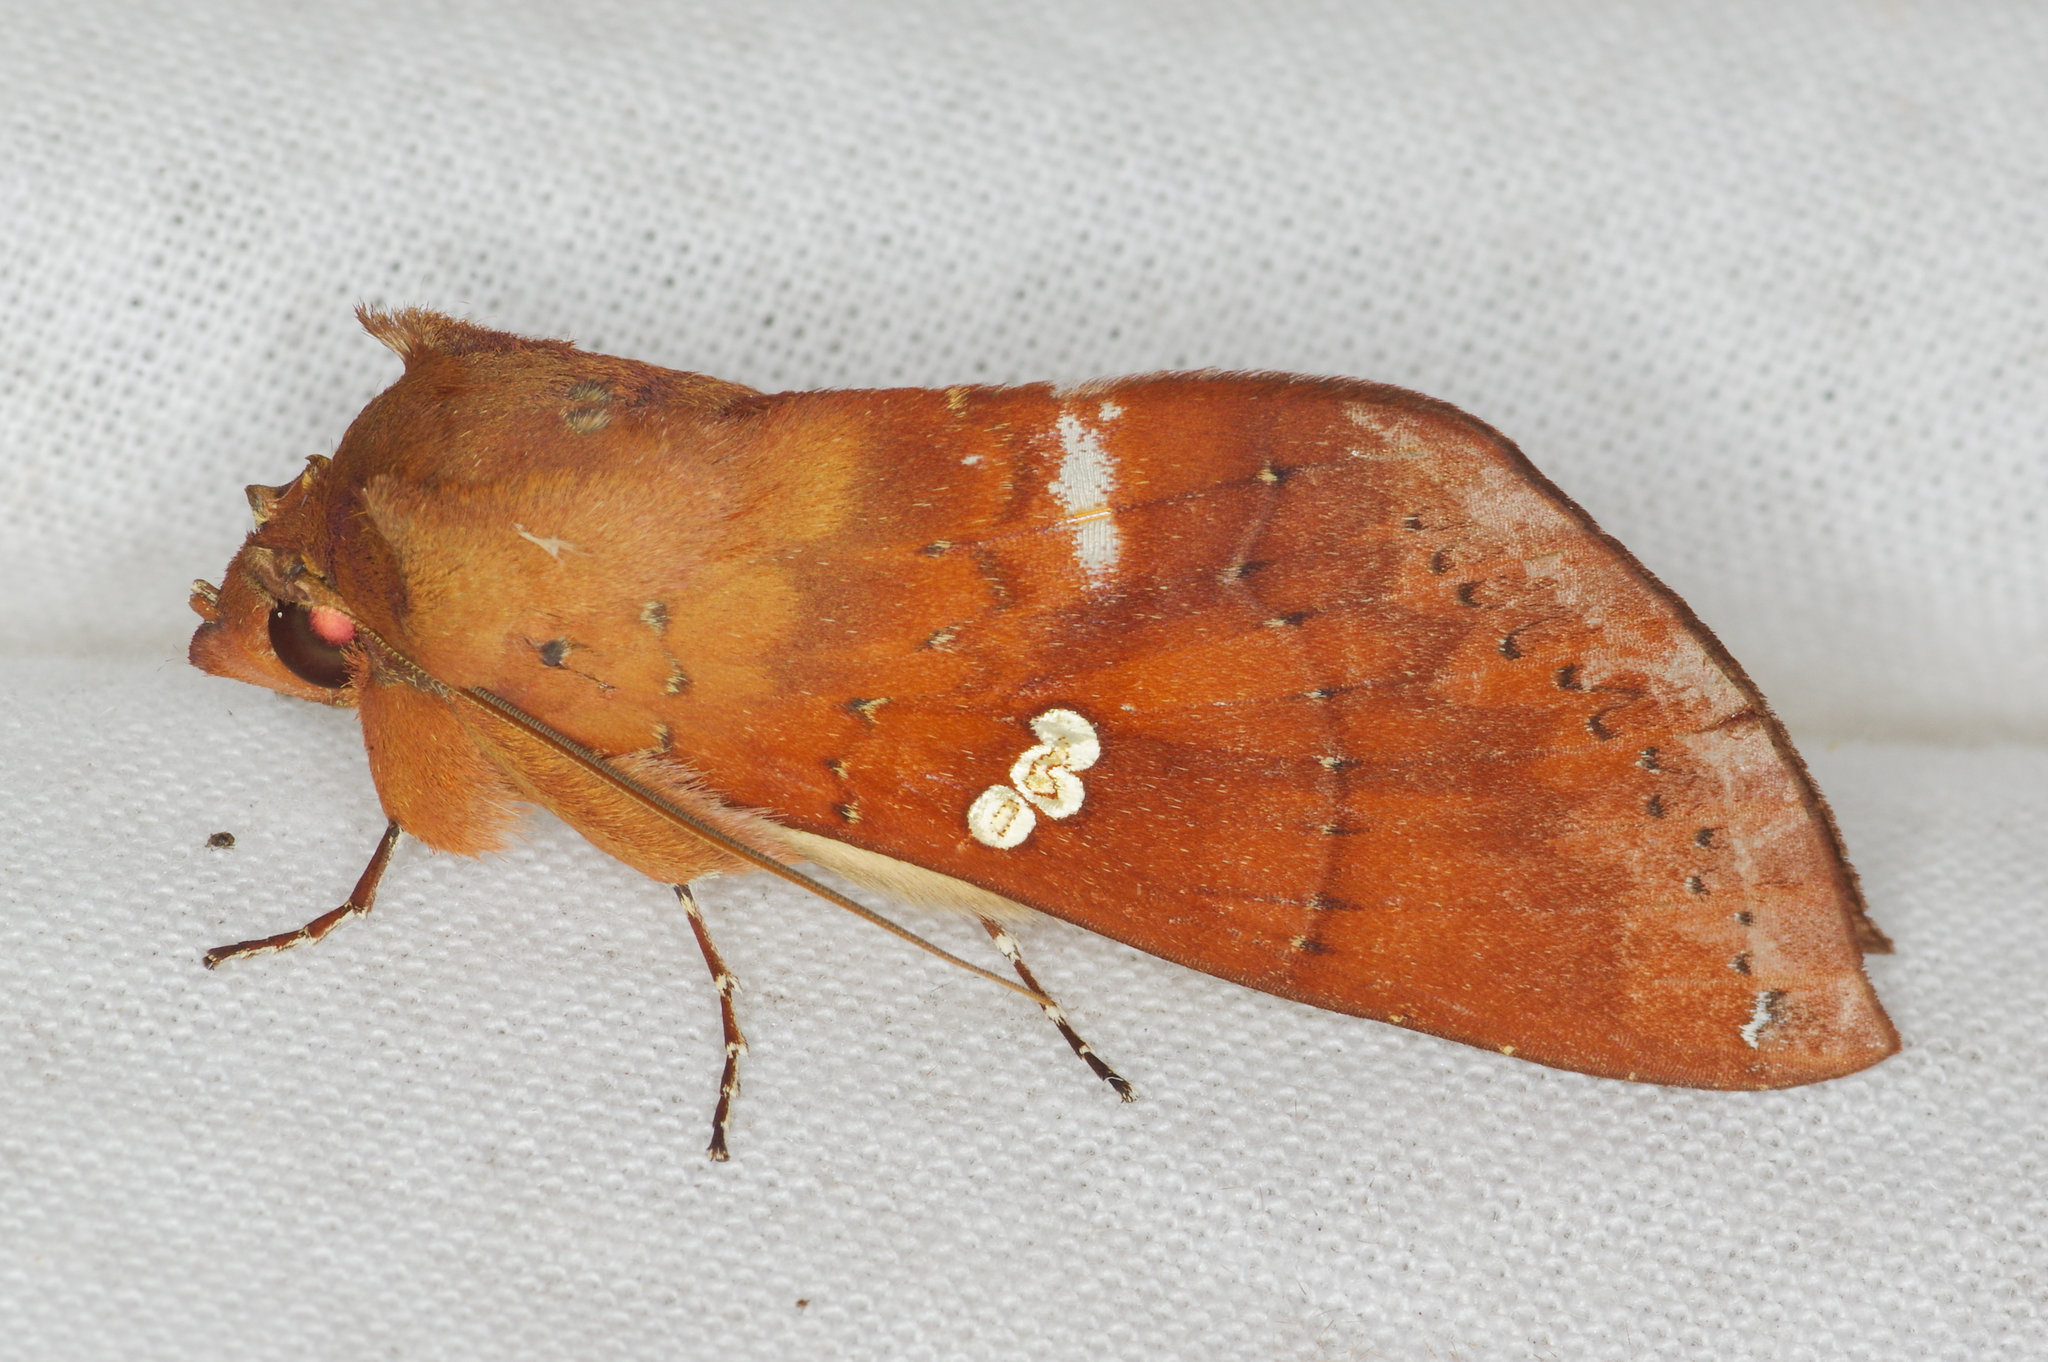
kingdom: Animalia
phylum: Arthropoda
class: Insecta
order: Lepidoptera
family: Notodontidae
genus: Hapigia
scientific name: Hapigia rufescens
